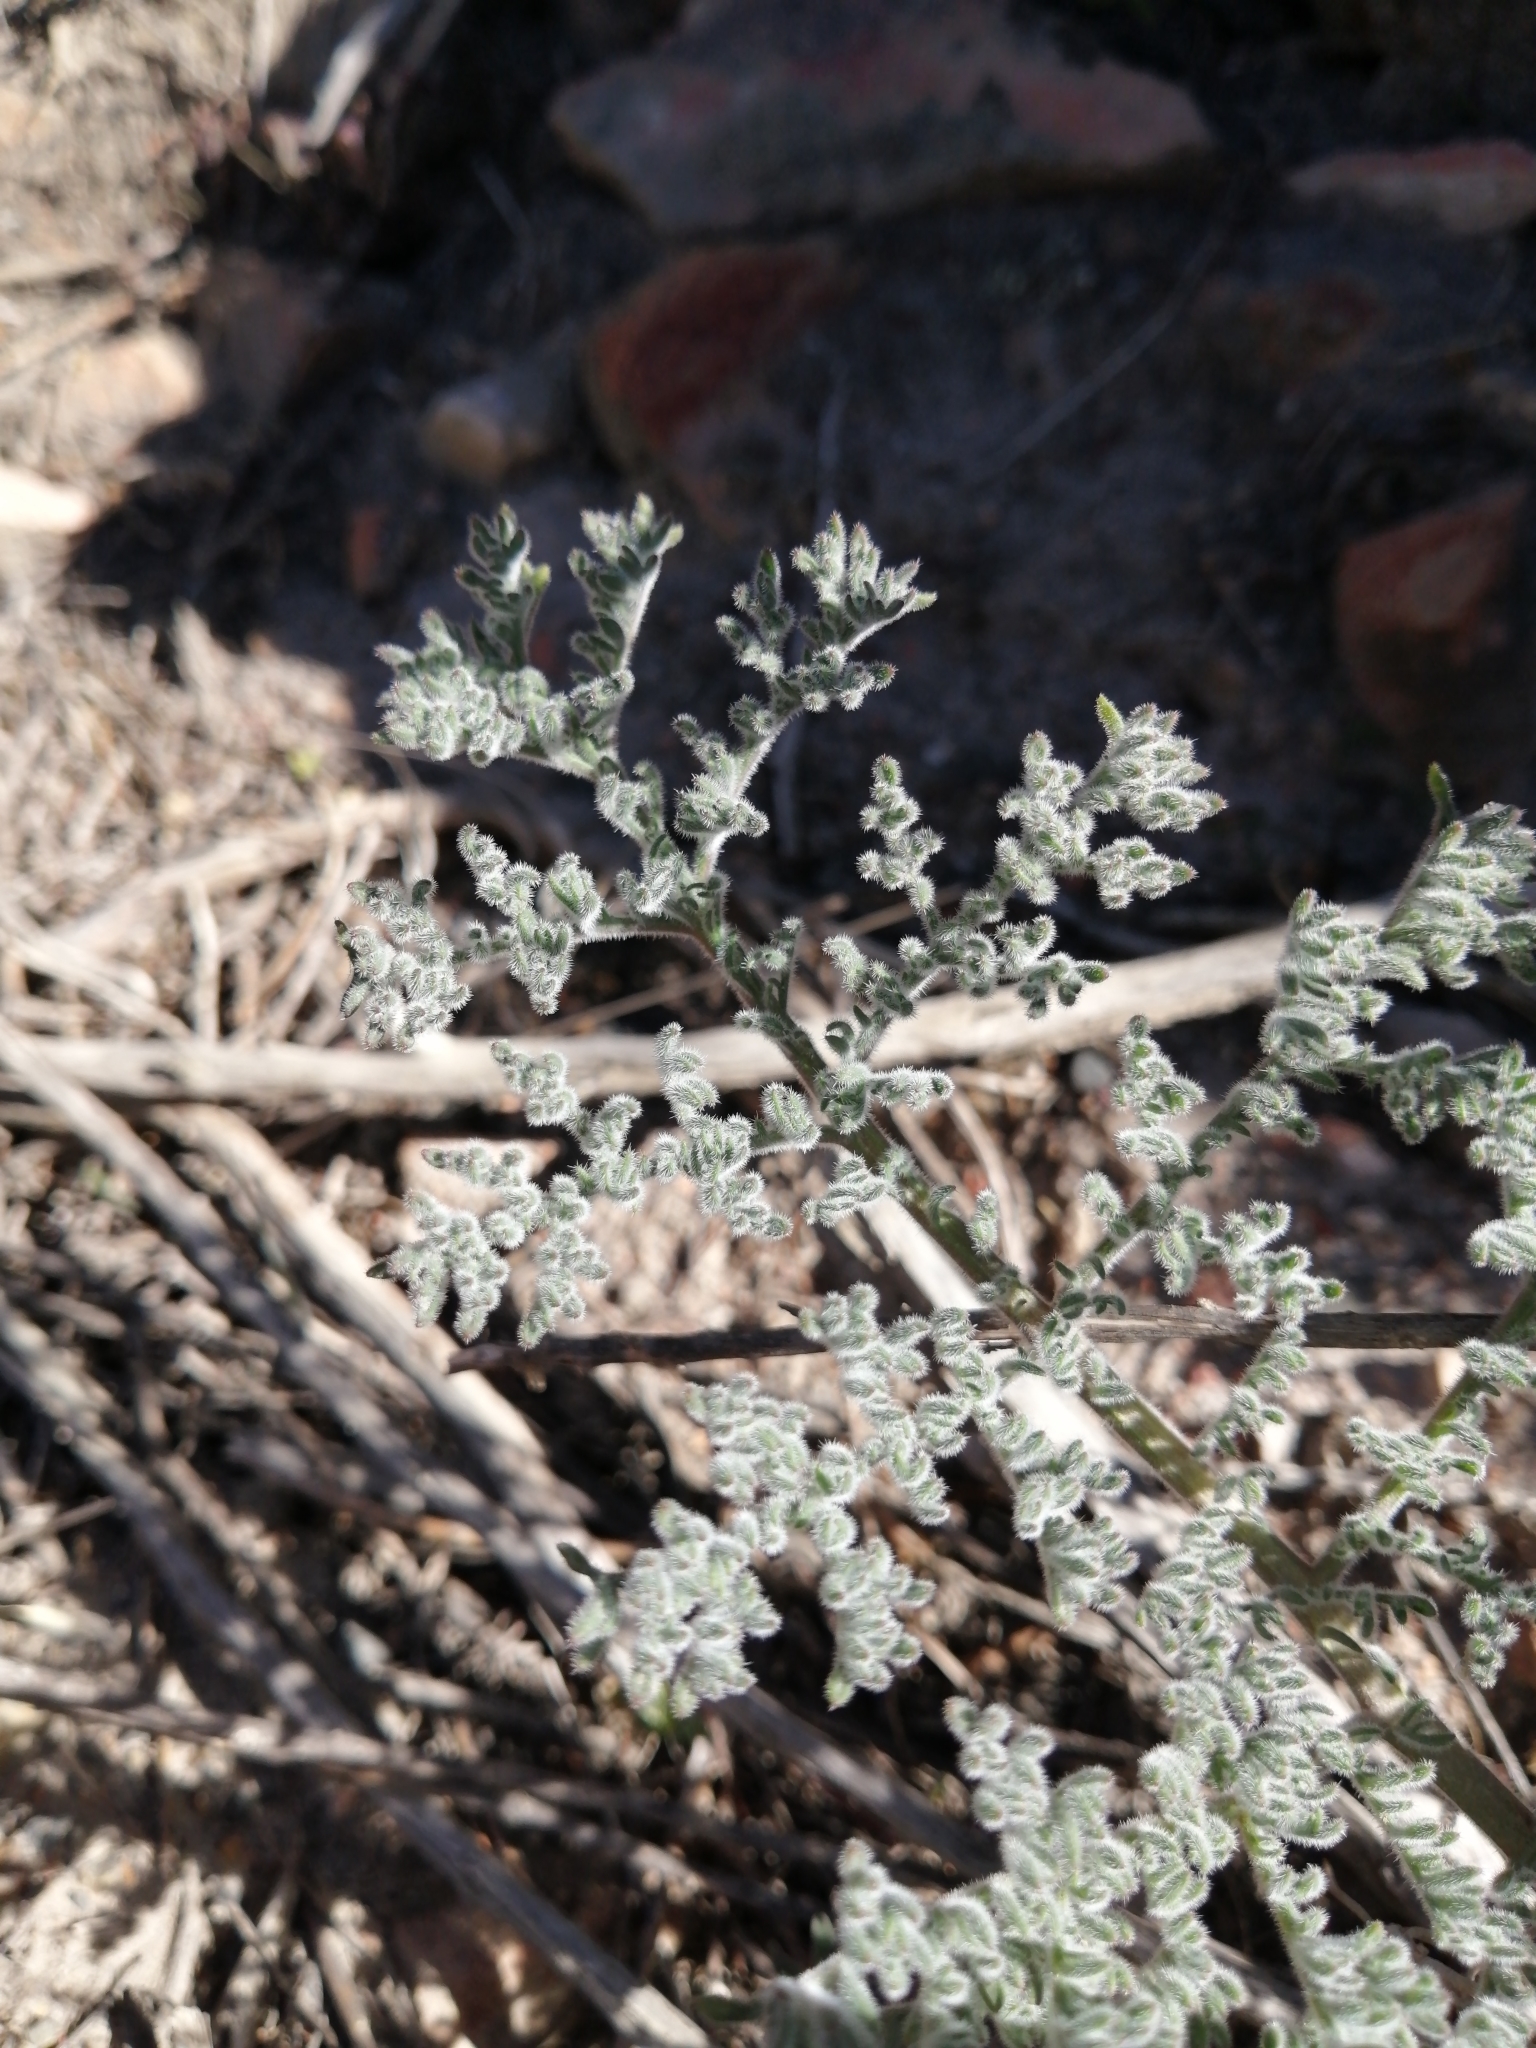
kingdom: Plantae
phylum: Tracheophyta
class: Magnoliopsida
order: Geraniales
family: Geraniaceae
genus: Pelargonium
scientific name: Pelargonium triste
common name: Night-scent pelargonium
